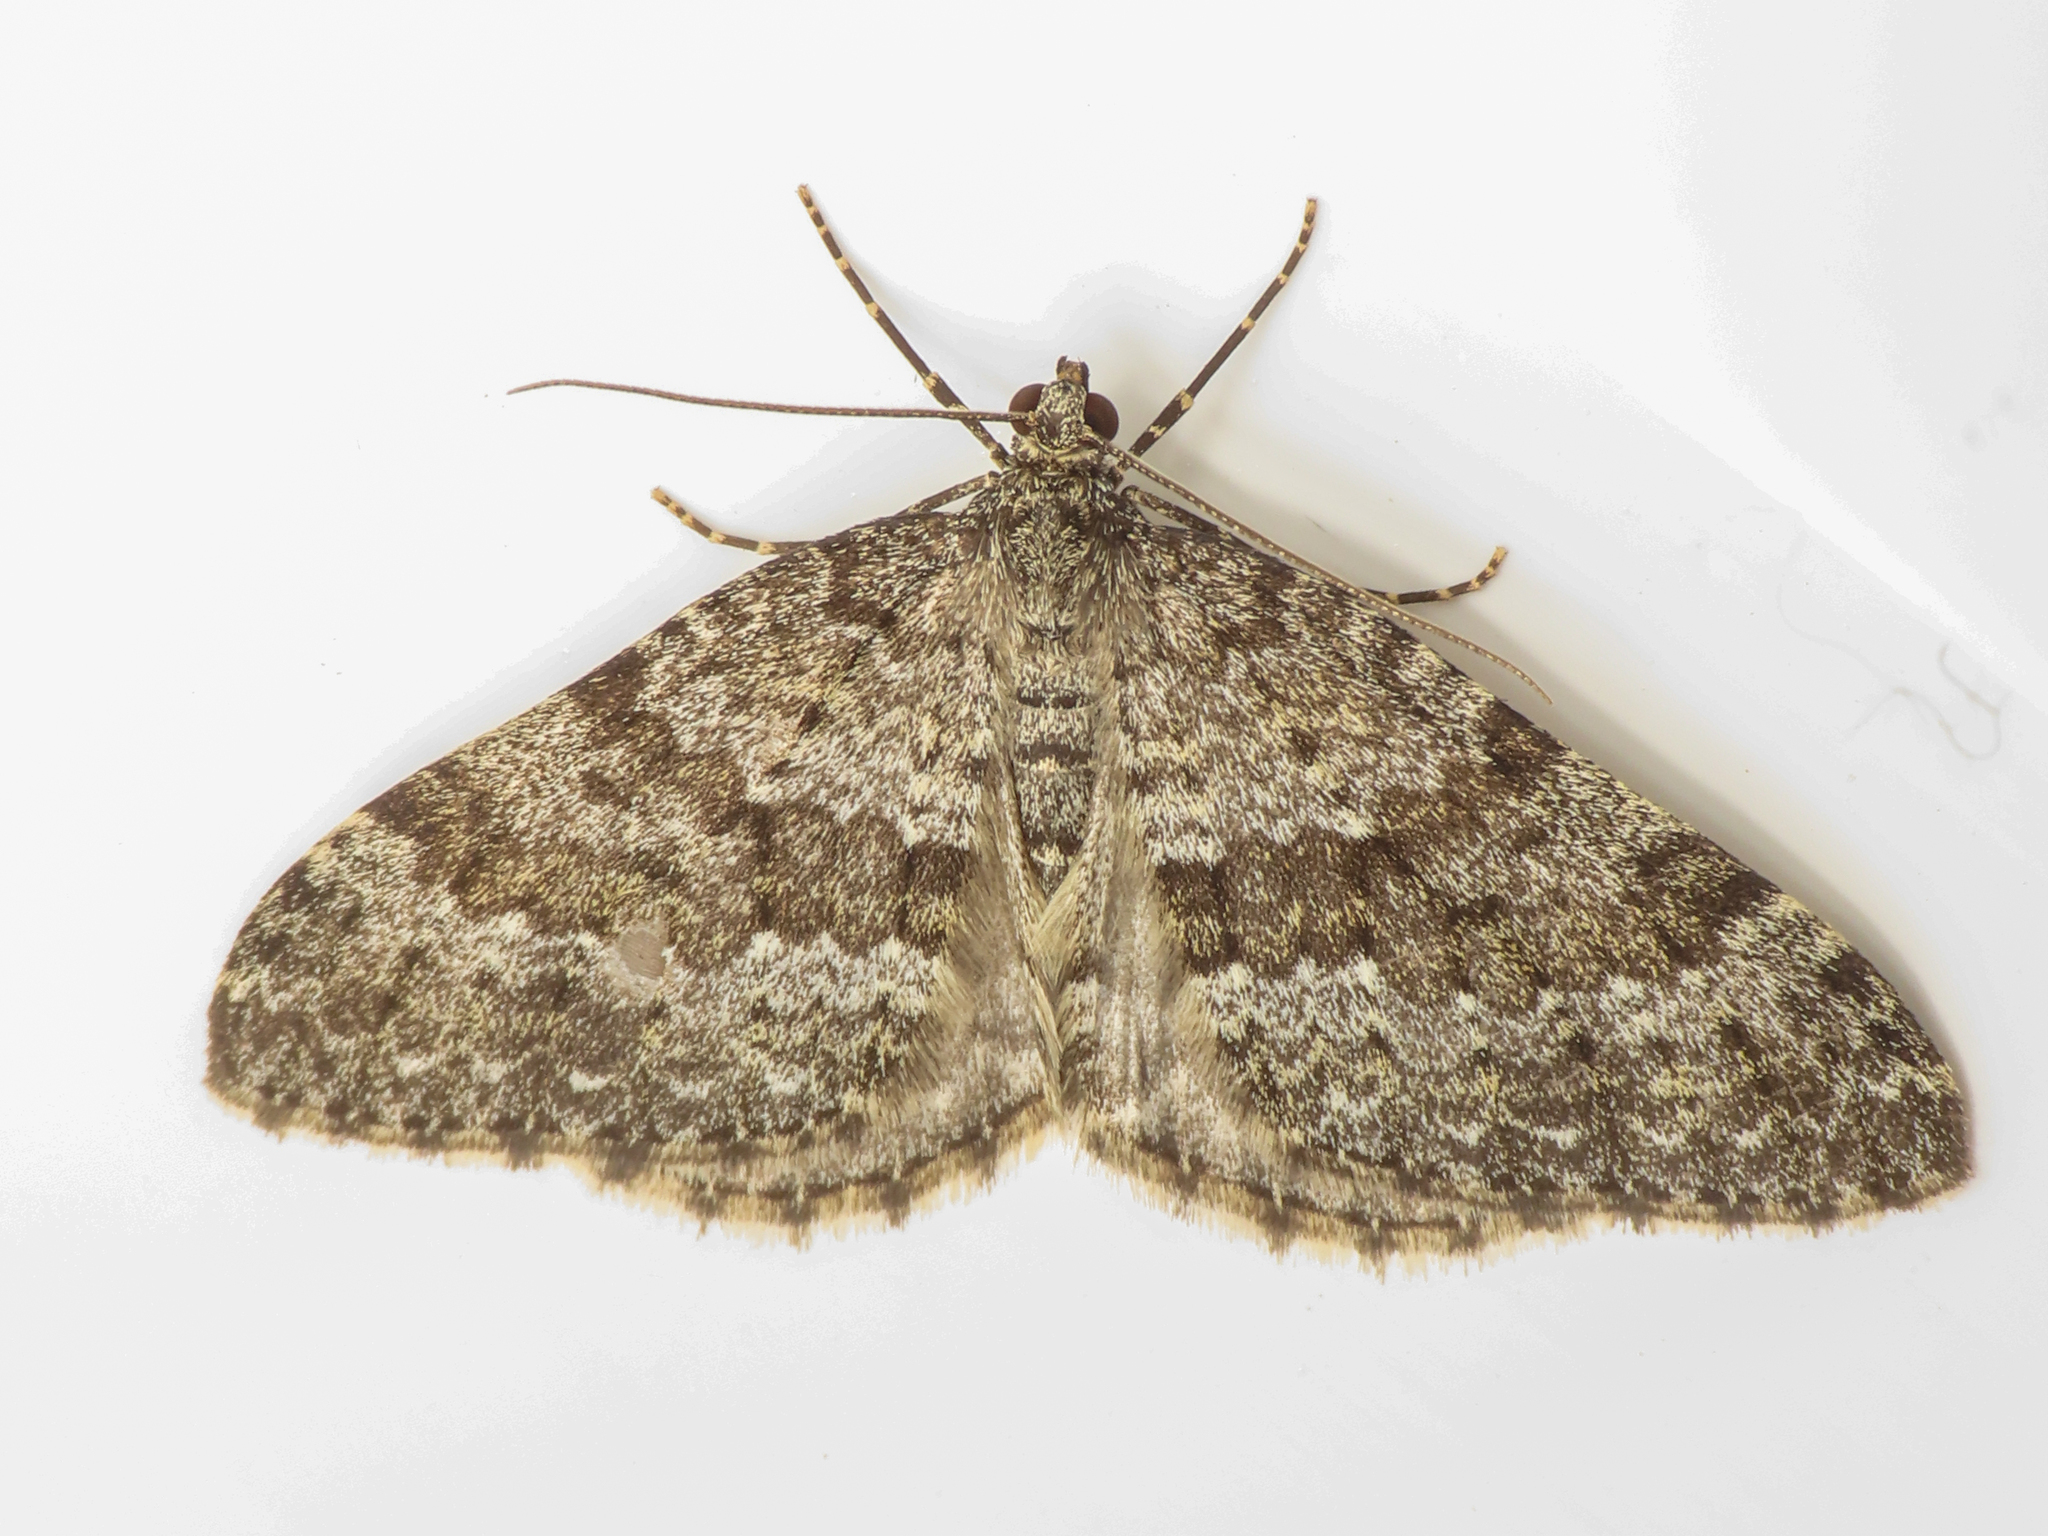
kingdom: Animalia
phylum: Arthropoda
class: Insecta
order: Lepidoptera
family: Geometridae
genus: Entephria
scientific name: Entephria caesiata
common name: Grey mountain moth
